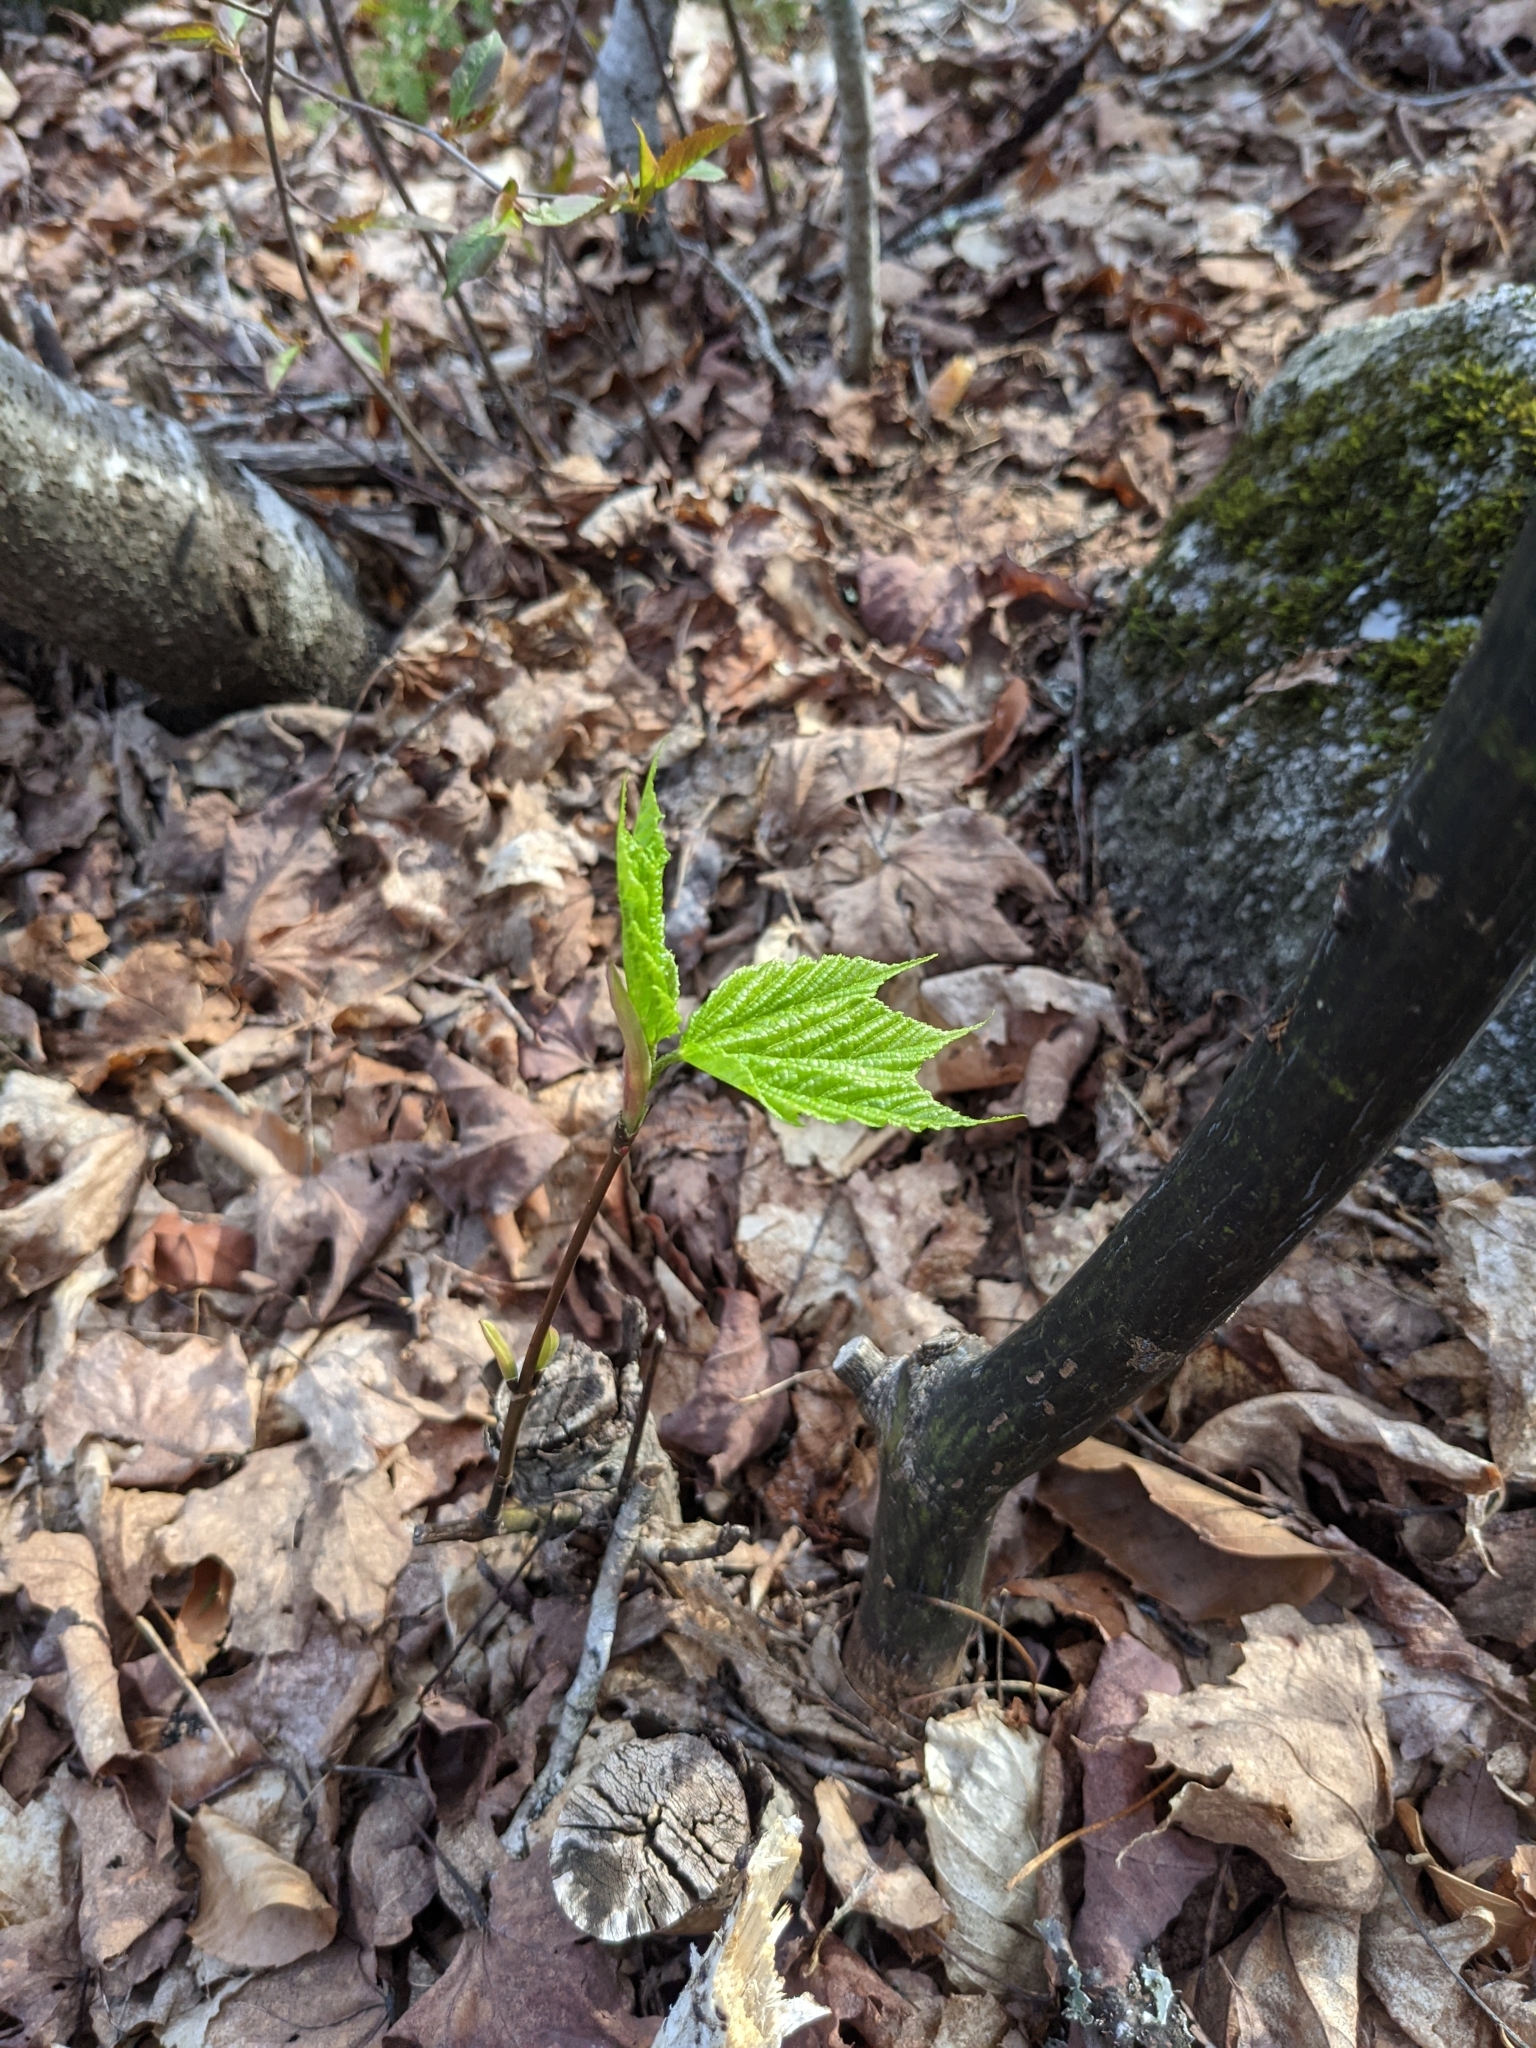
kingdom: Plantae
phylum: Tracheophyta
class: Magnoliopsida
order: Sapindales
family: Sapindaceae
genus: Acer
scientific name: Acer pensylvanicum
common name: Moosewood
